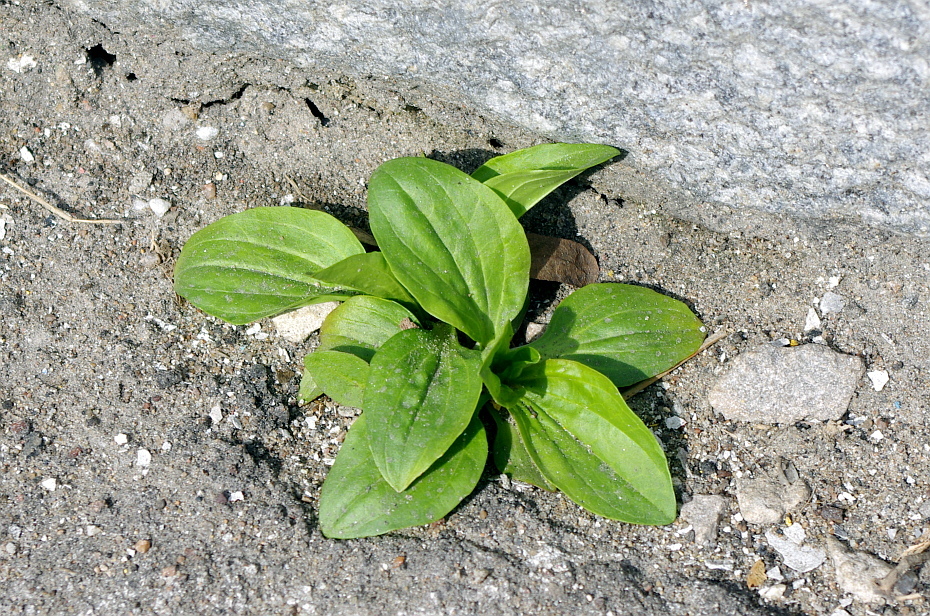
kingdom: Plantae
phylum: Tracheophyta
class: Magnoliopsida
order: Lamiales
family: Plantaginaceae
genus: Plantago
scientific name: Plantago major
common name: Common plantain
